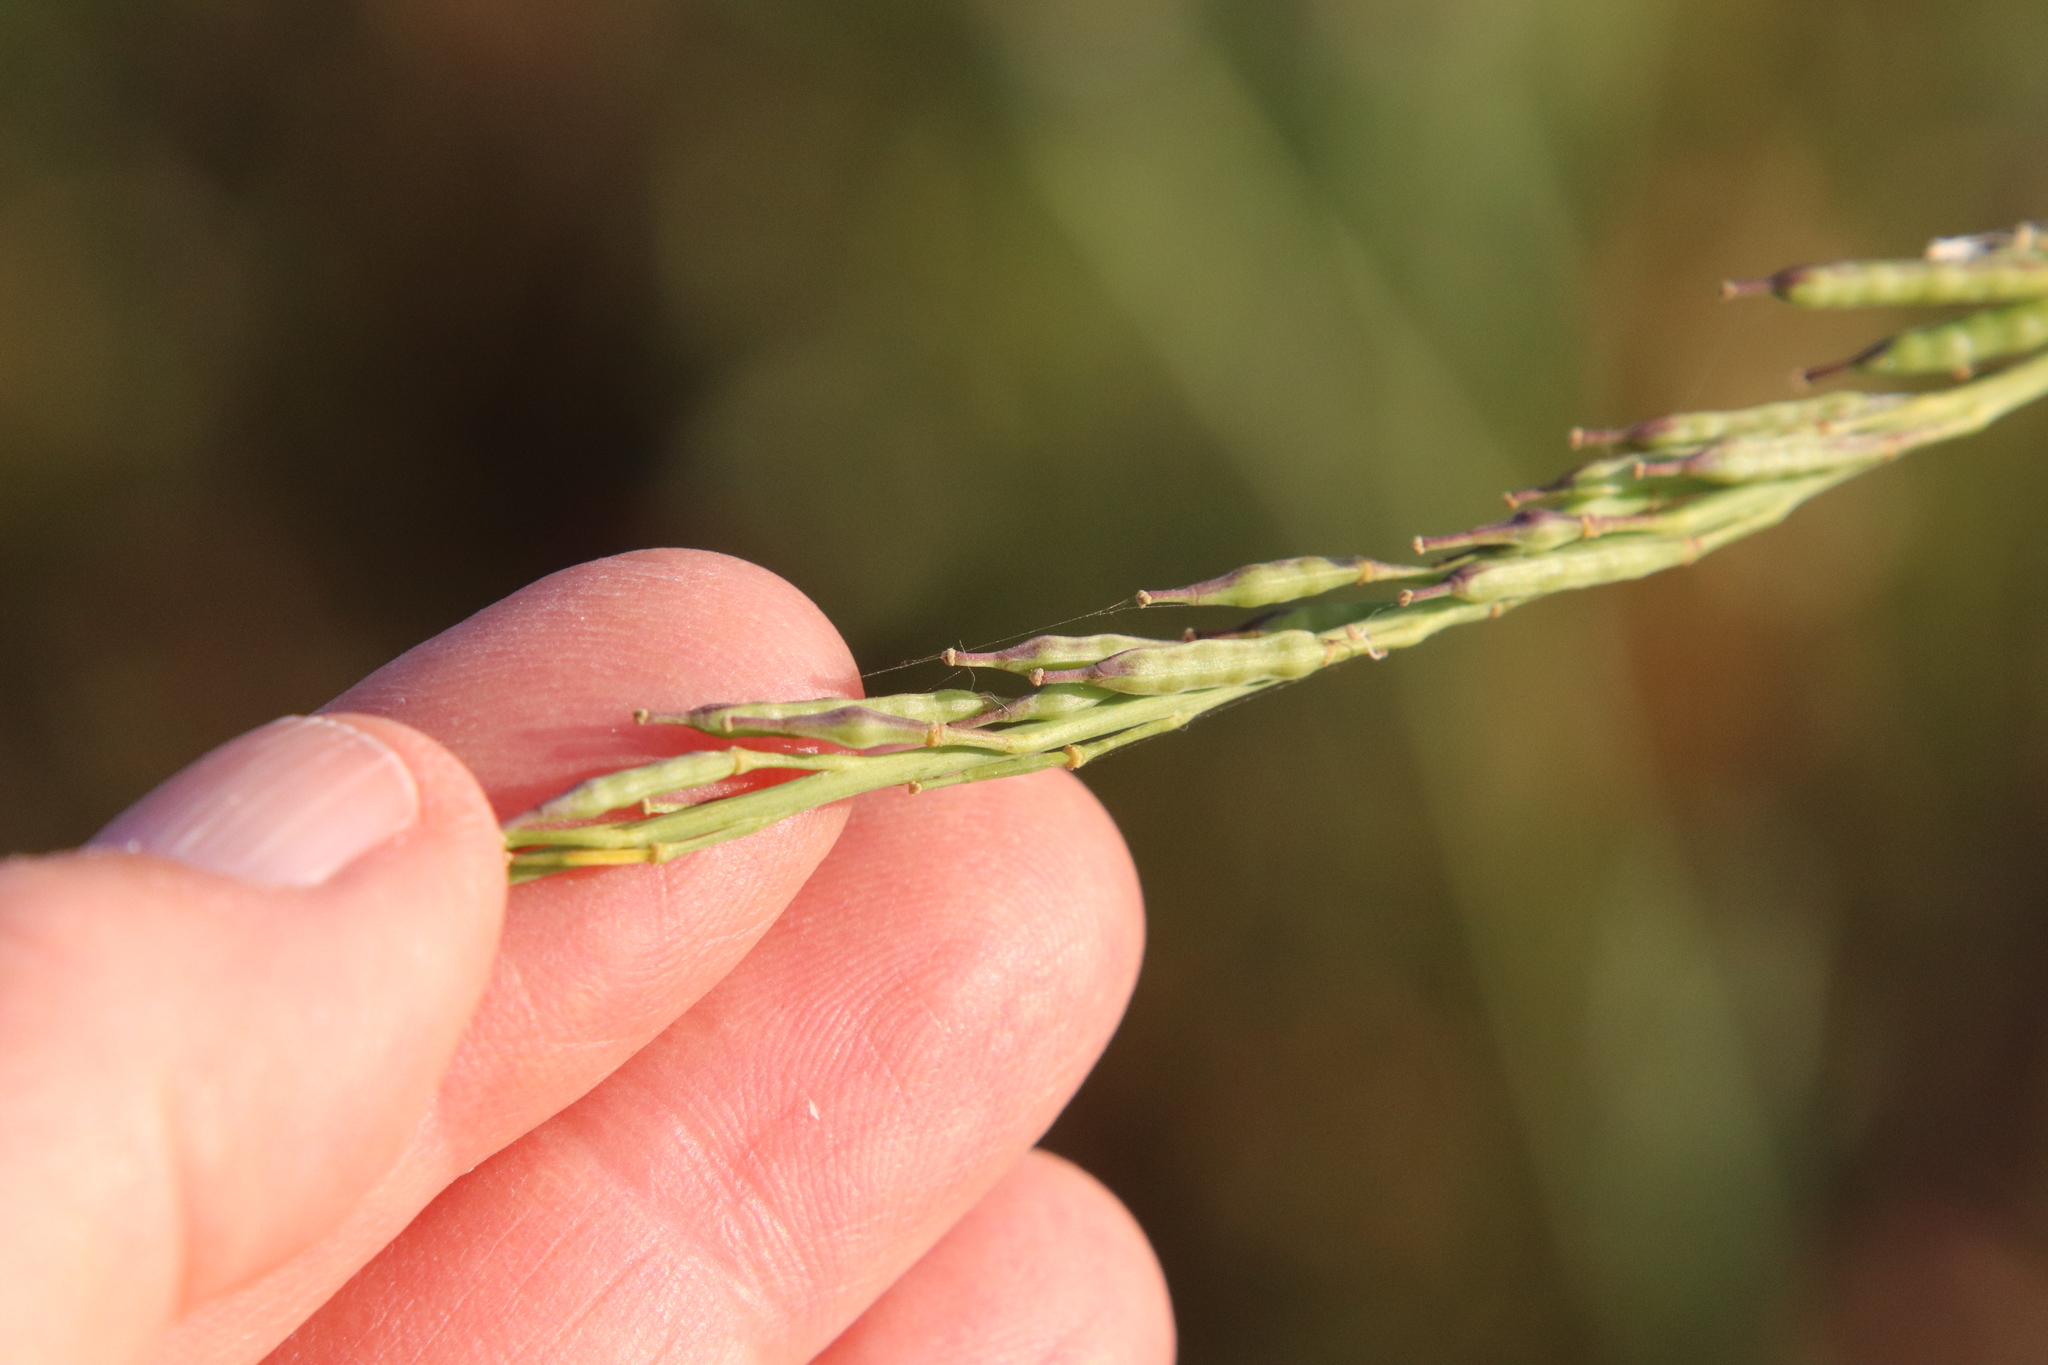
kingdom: Plantae
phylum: Tracheophyta
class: Magnoliopsida
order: Brassicales
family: Brassicaceae
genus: Brassica
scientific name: Brassica nigra
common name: Black mustard
